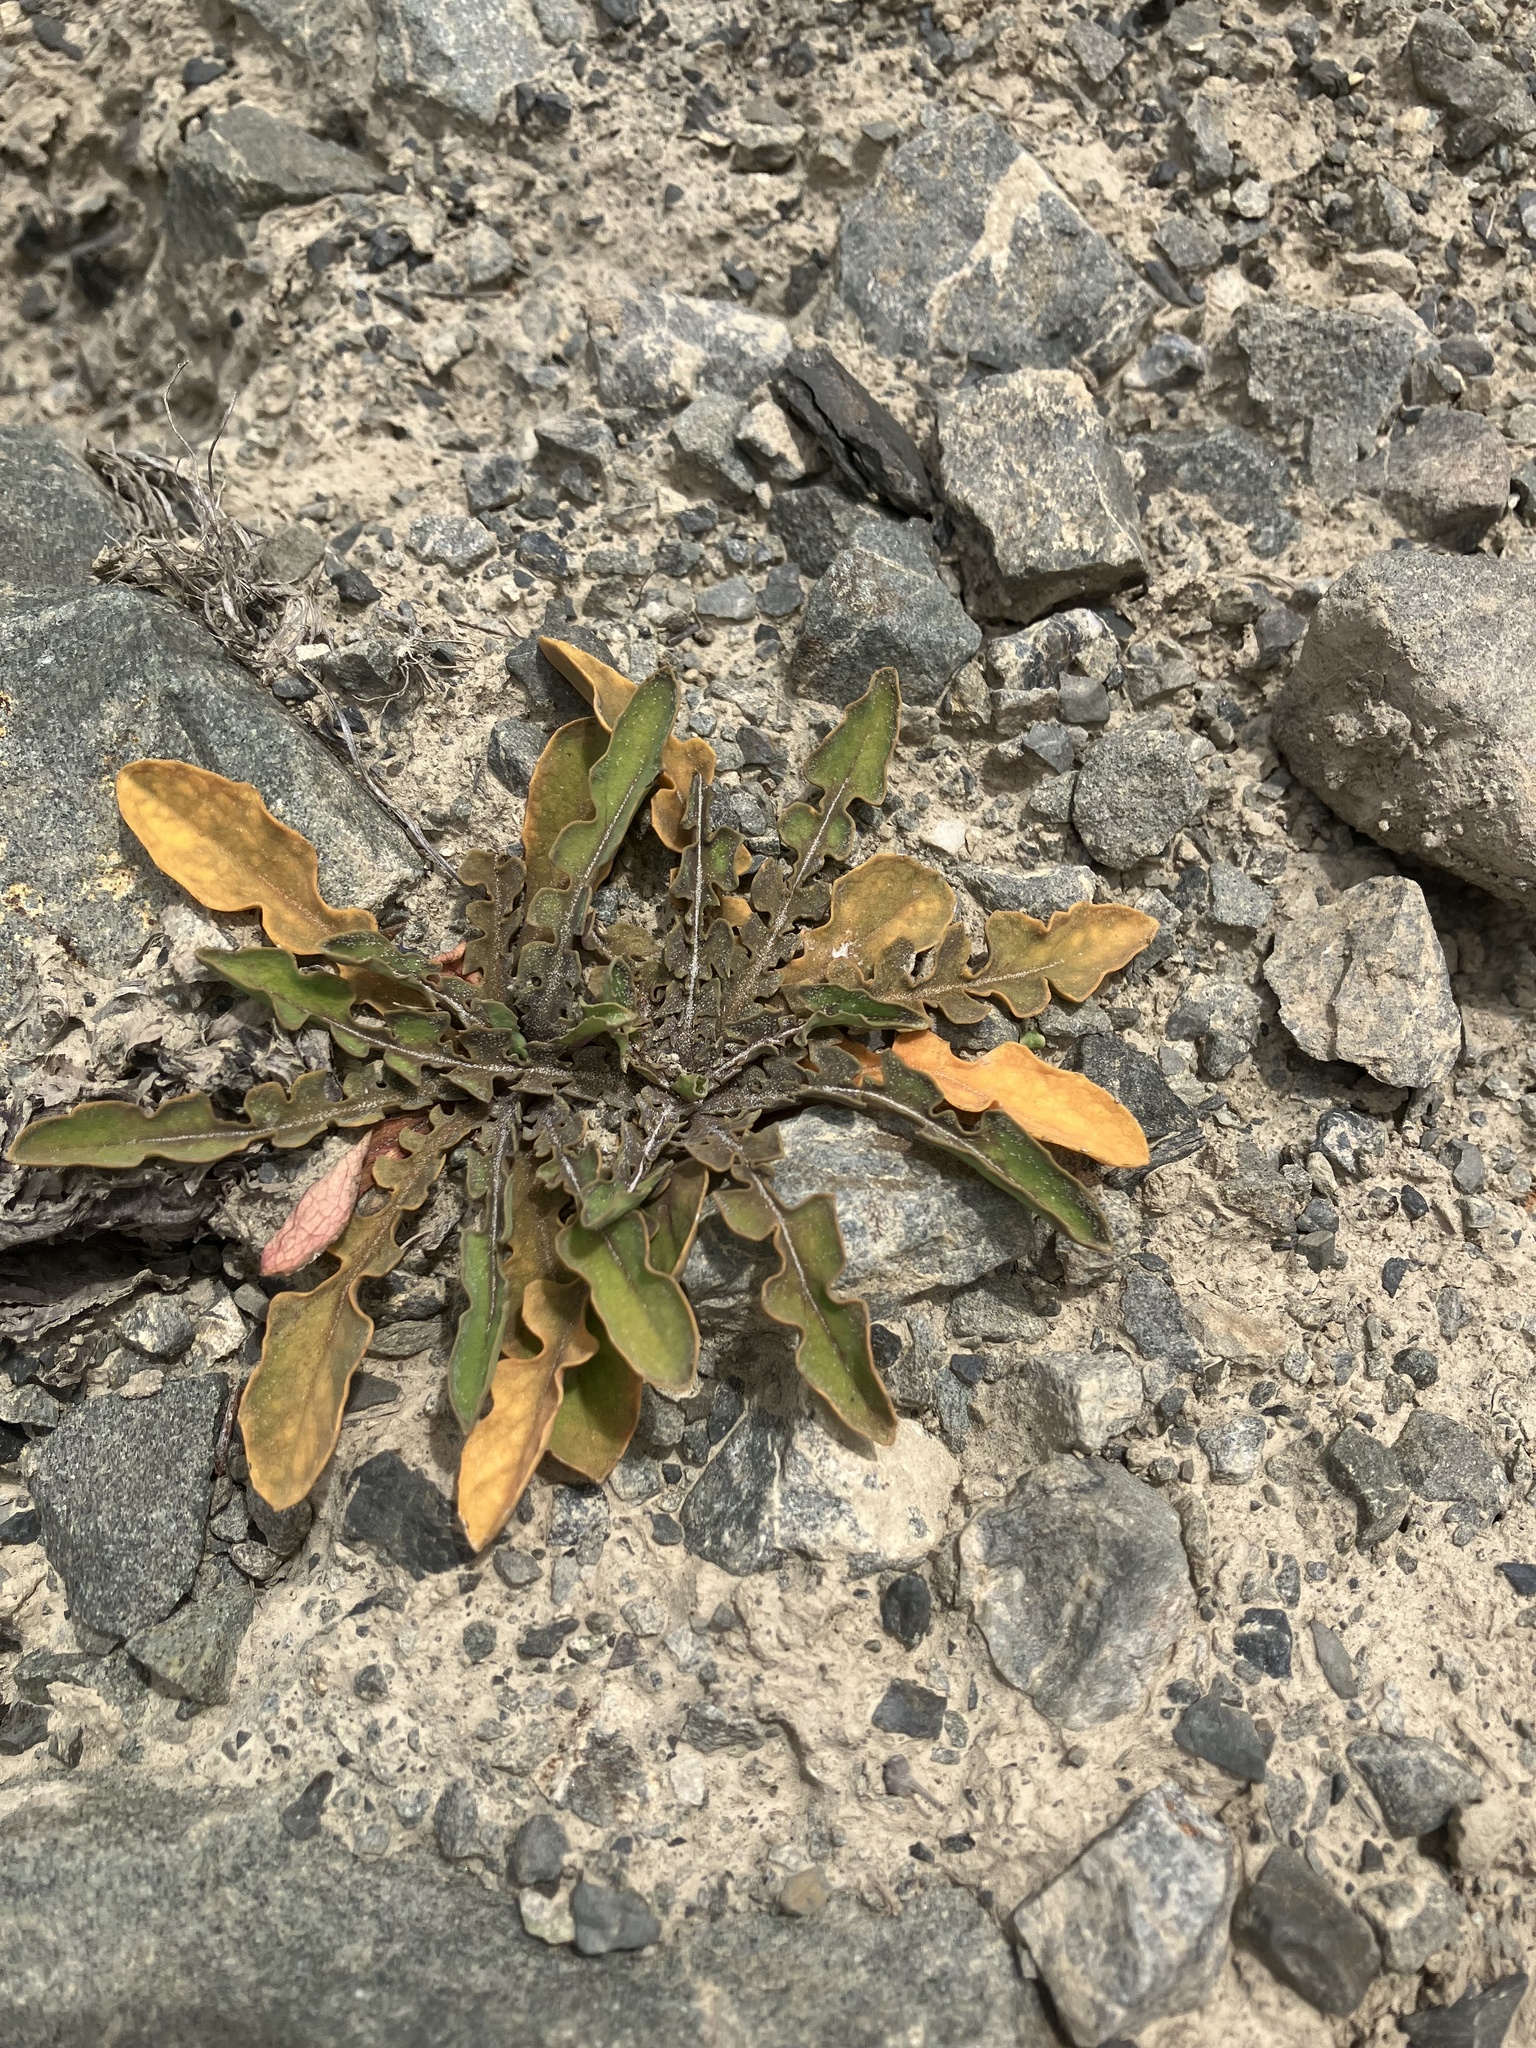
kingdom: Plantae
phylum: Tracheophyta
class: Magnoliopsida
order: Asterales
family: Asteraceae
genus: Sonchus
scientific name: Sonchus novae-zelandiae
